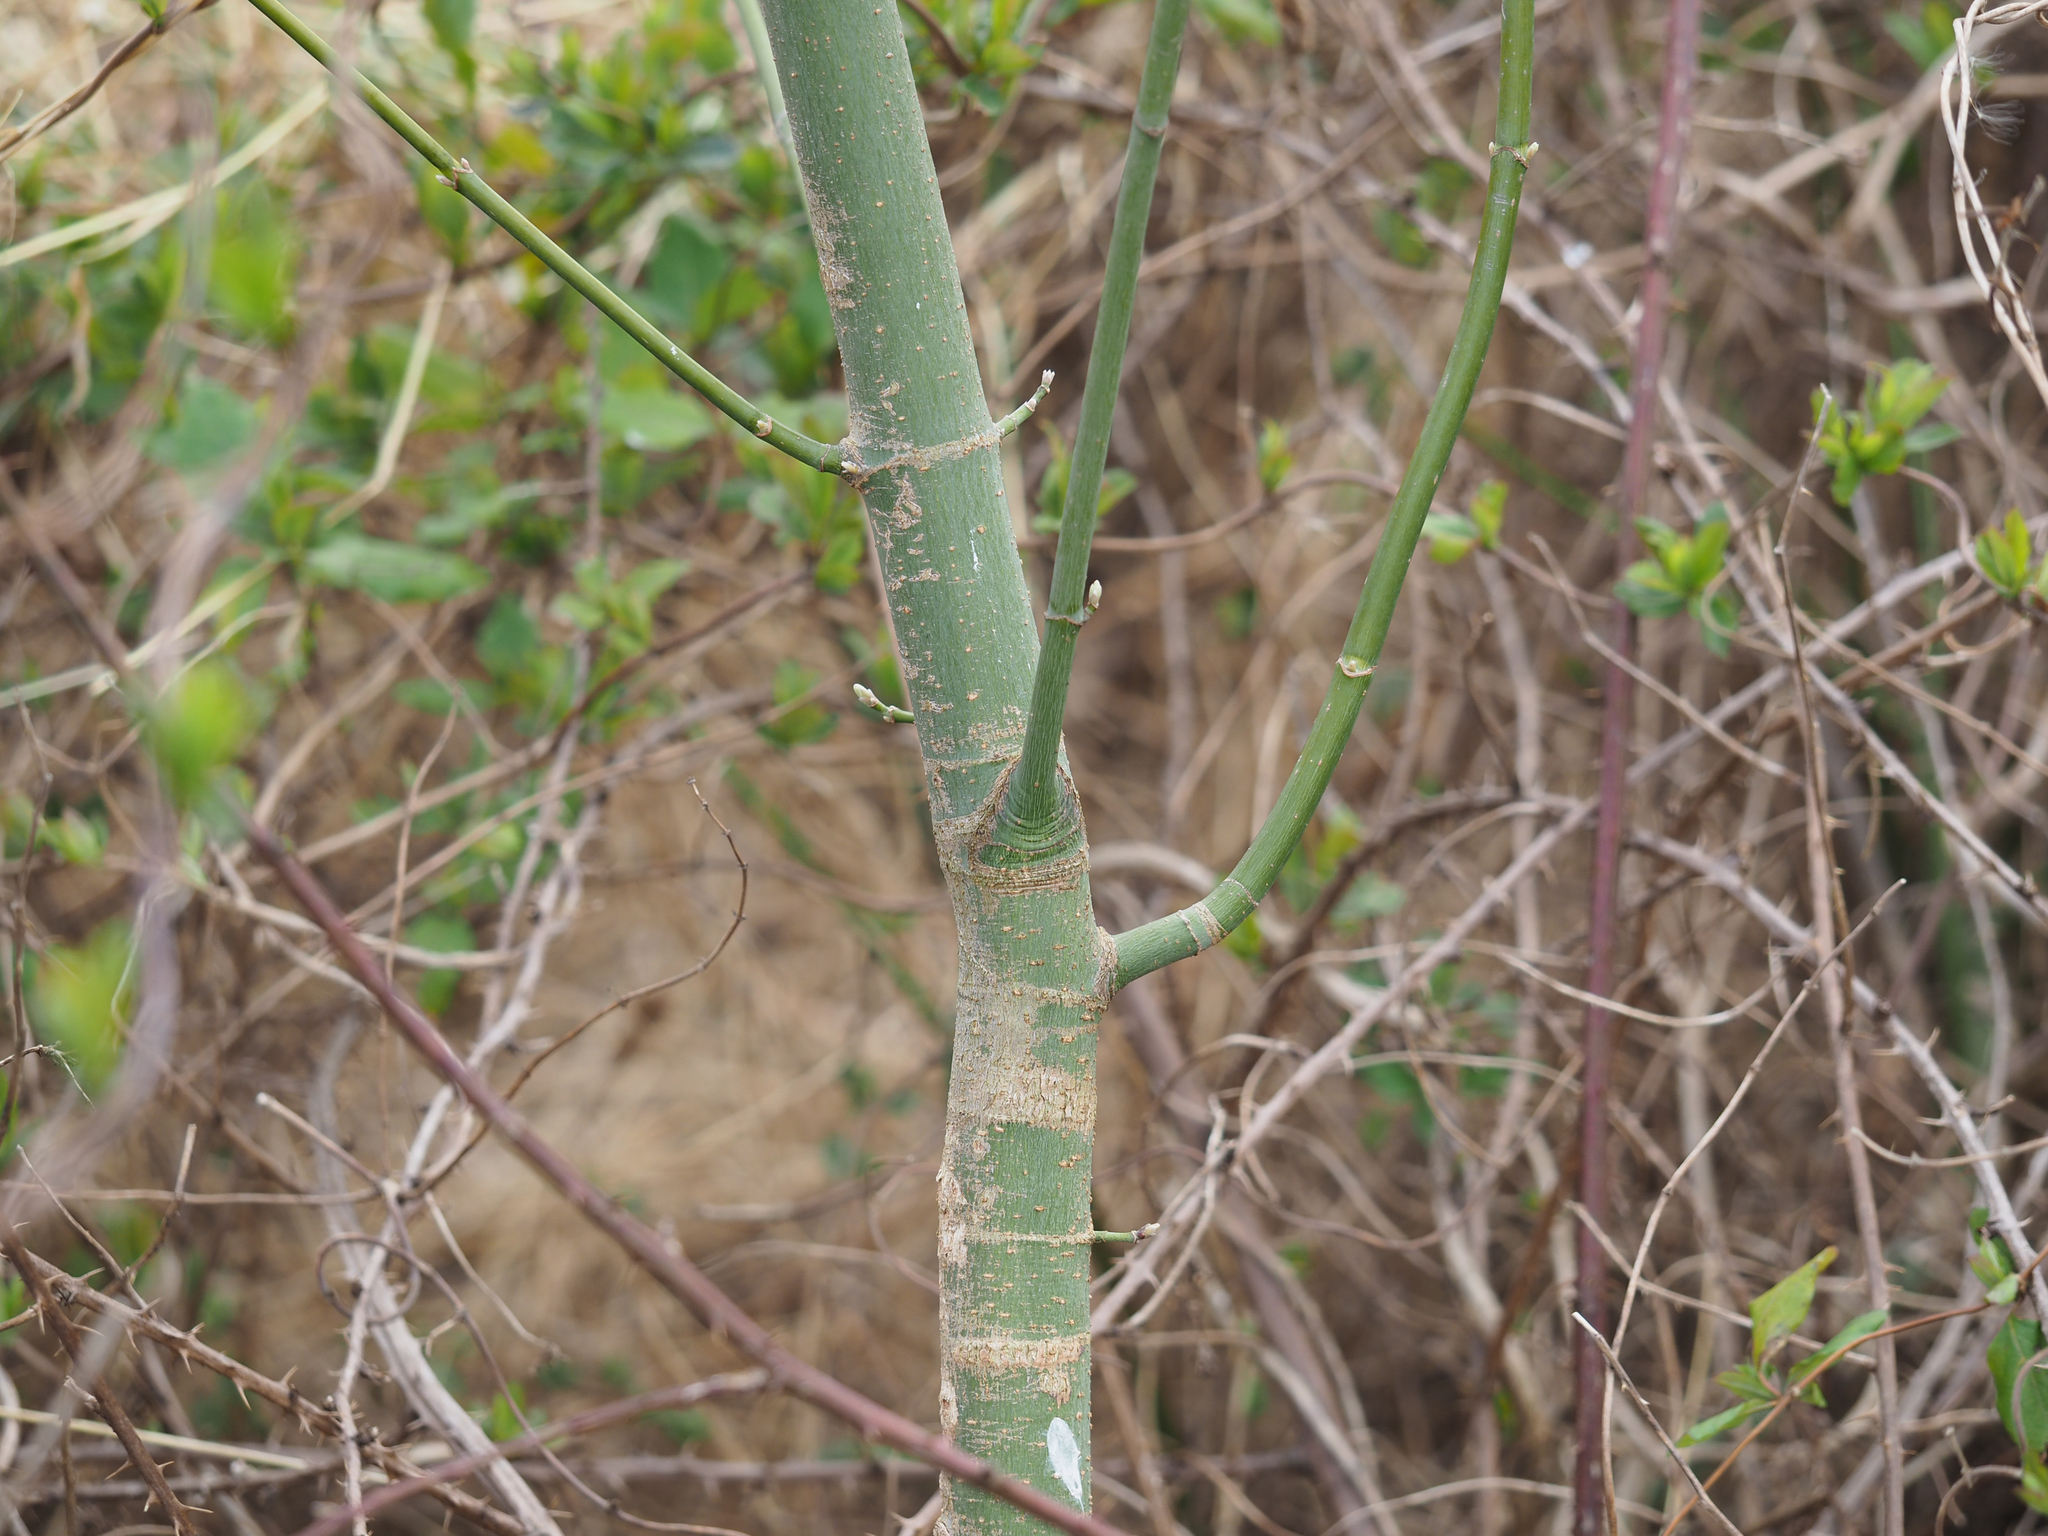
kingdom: Plantae
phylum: Tracheophyta
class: Magnoliopsida
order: Sapindales
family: Sapindaceae
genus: Acer
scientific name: Acer negundo
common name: Ashleaf maple
